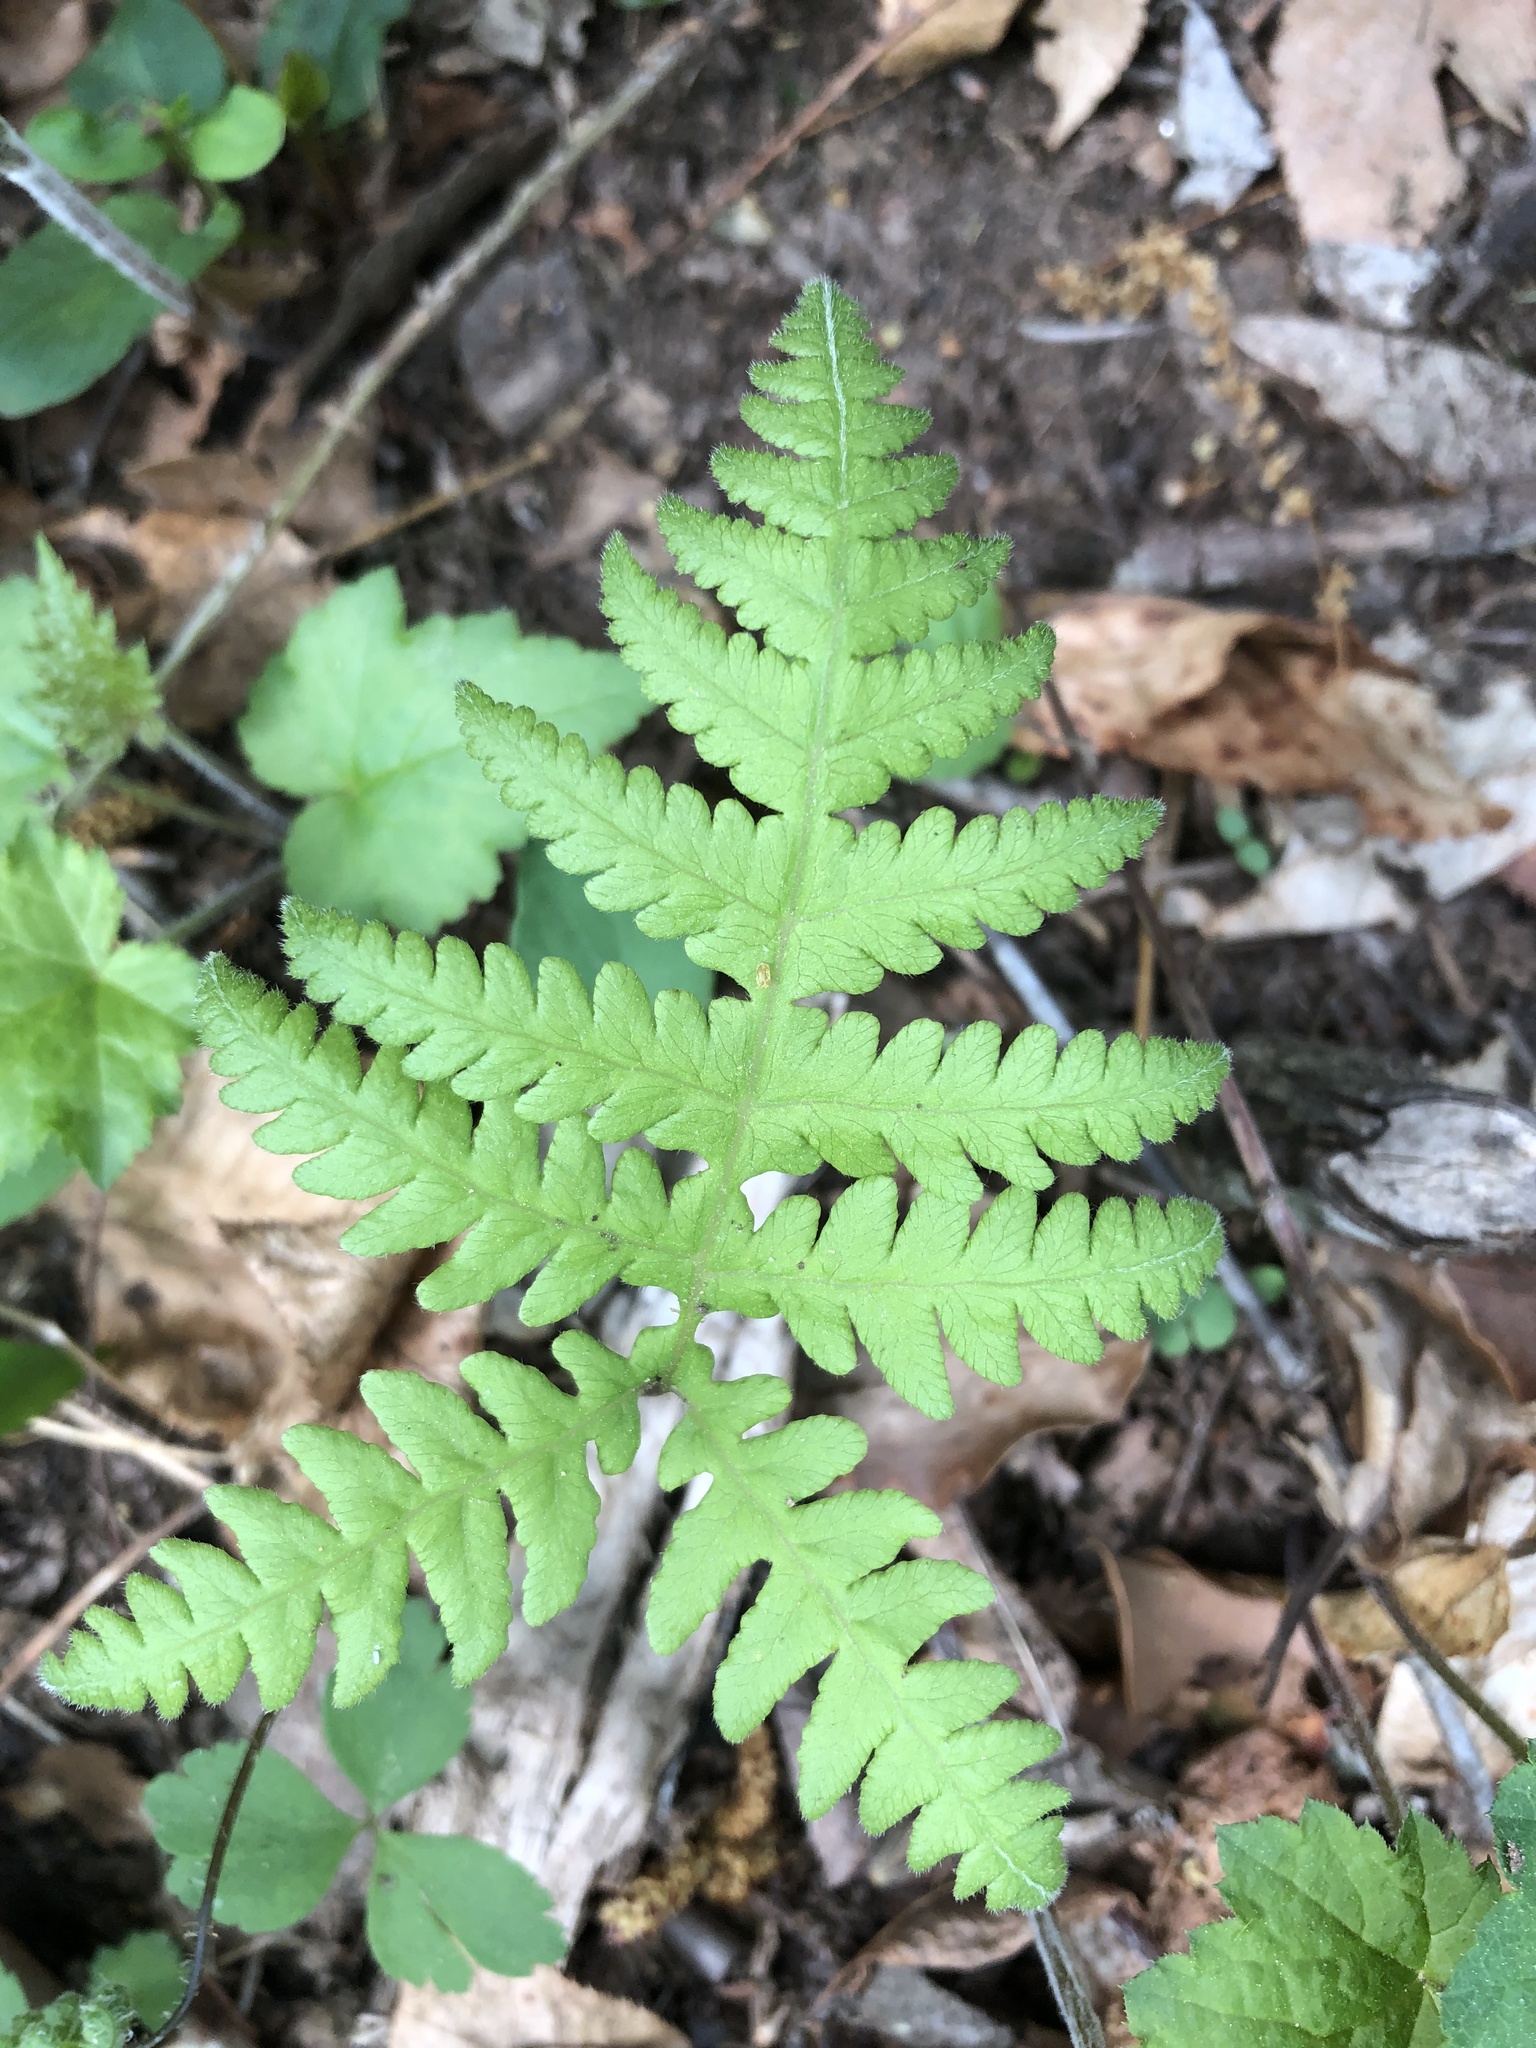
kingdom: Plantae
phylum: Tracheophyta
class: Polypodiopsida
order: Polypodiales
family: Thelypteridaceae
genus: Phegopteris
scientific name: Phegopteris hexagonoptera
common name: Broad beech fern
